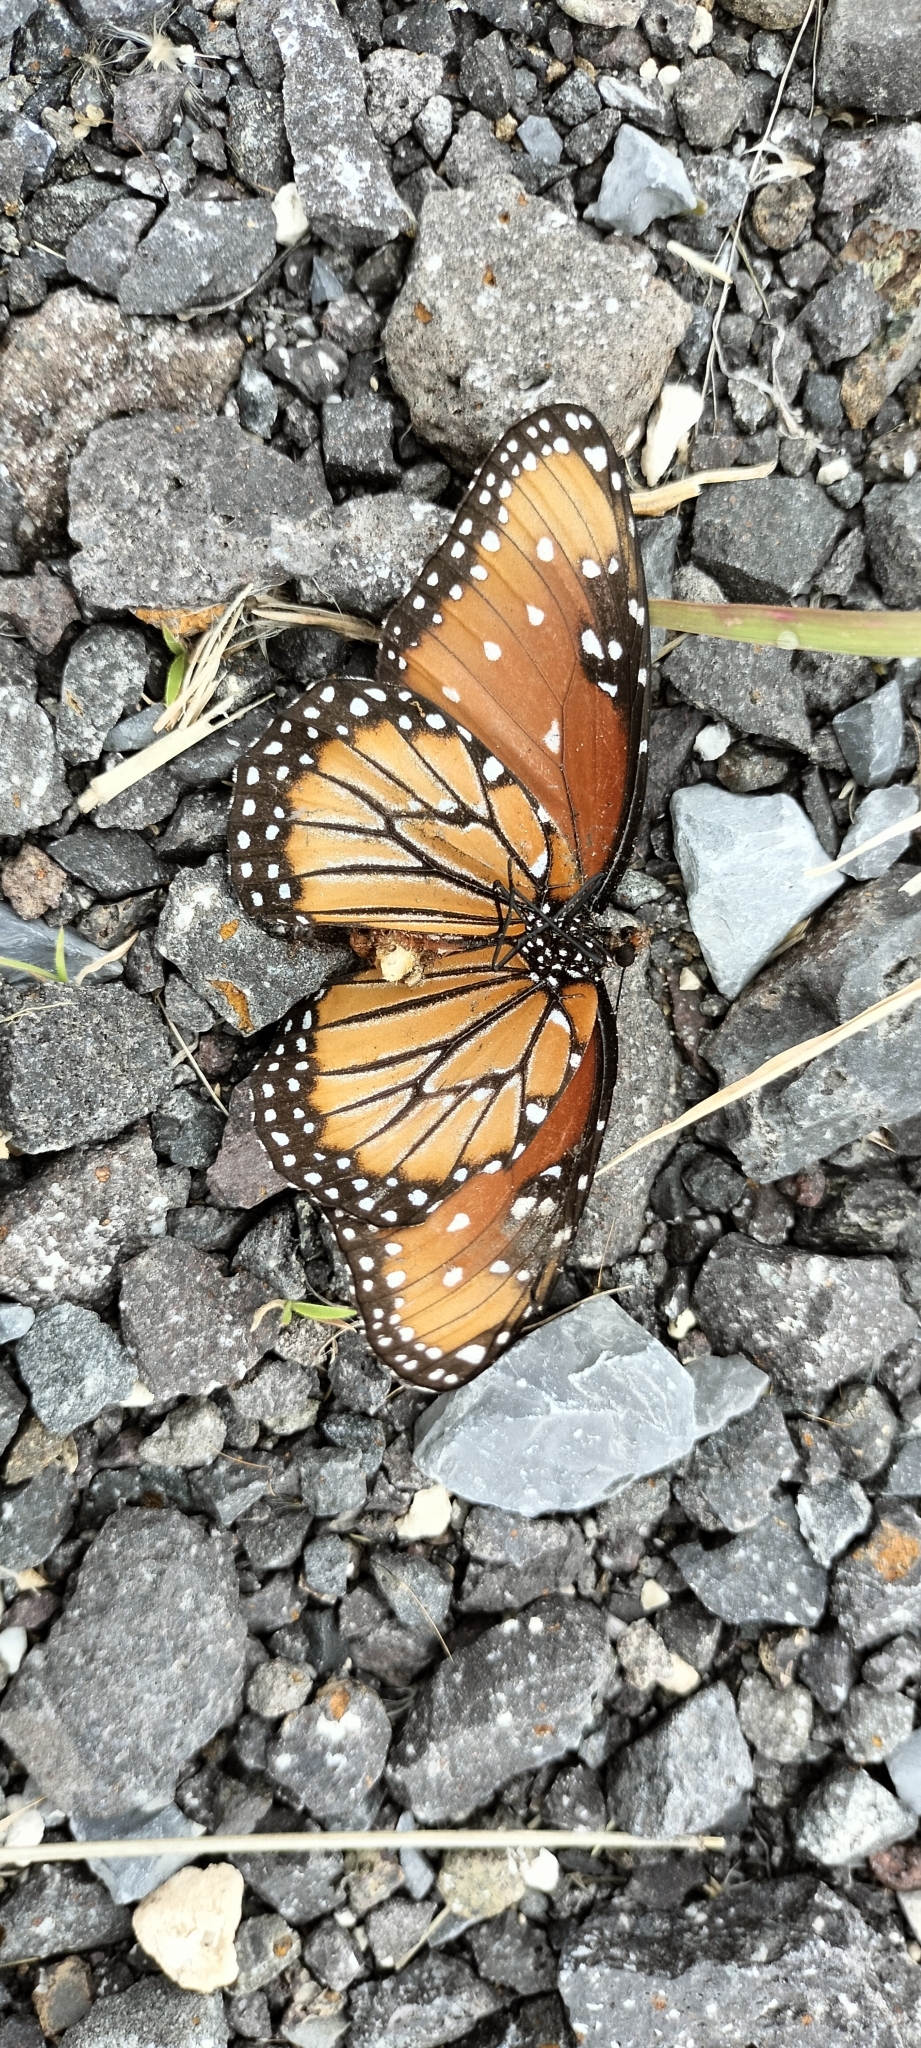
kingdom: Animalia
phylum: Arthropoda
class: Insecta
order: Lepidoptera
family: Nymphalidae
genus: Danaus
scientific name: Danaus gilippus
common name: Queen
